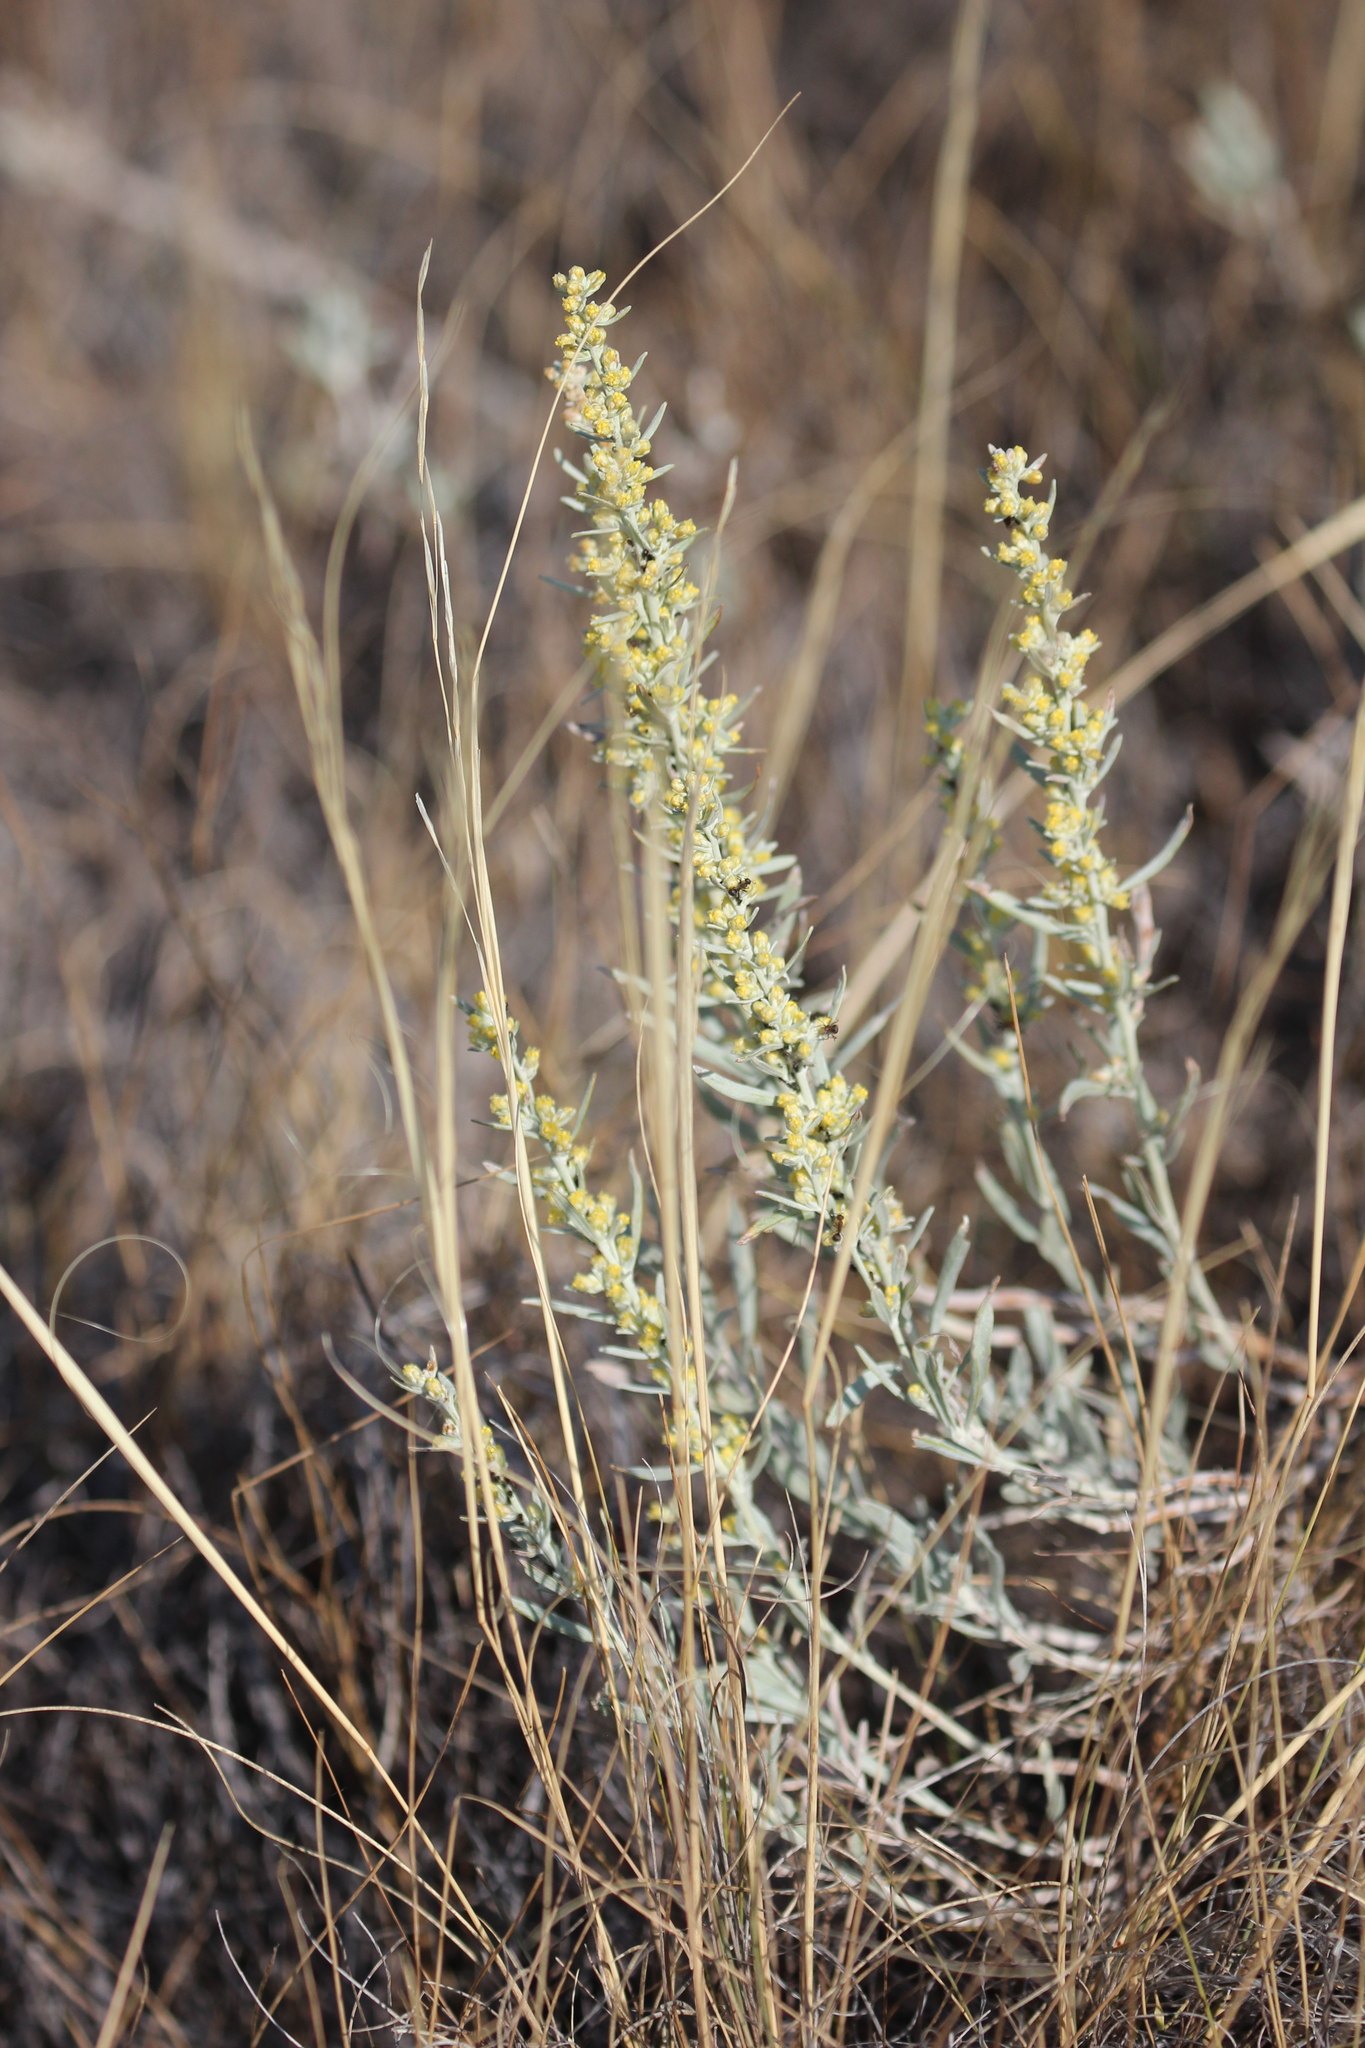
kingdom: Plantae
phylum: Tracheophyta
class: Magnoliopsida
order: Asterales
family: Asteraceae
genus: Artemisia
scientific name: Artemisia cana
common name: Silver sagebrush
